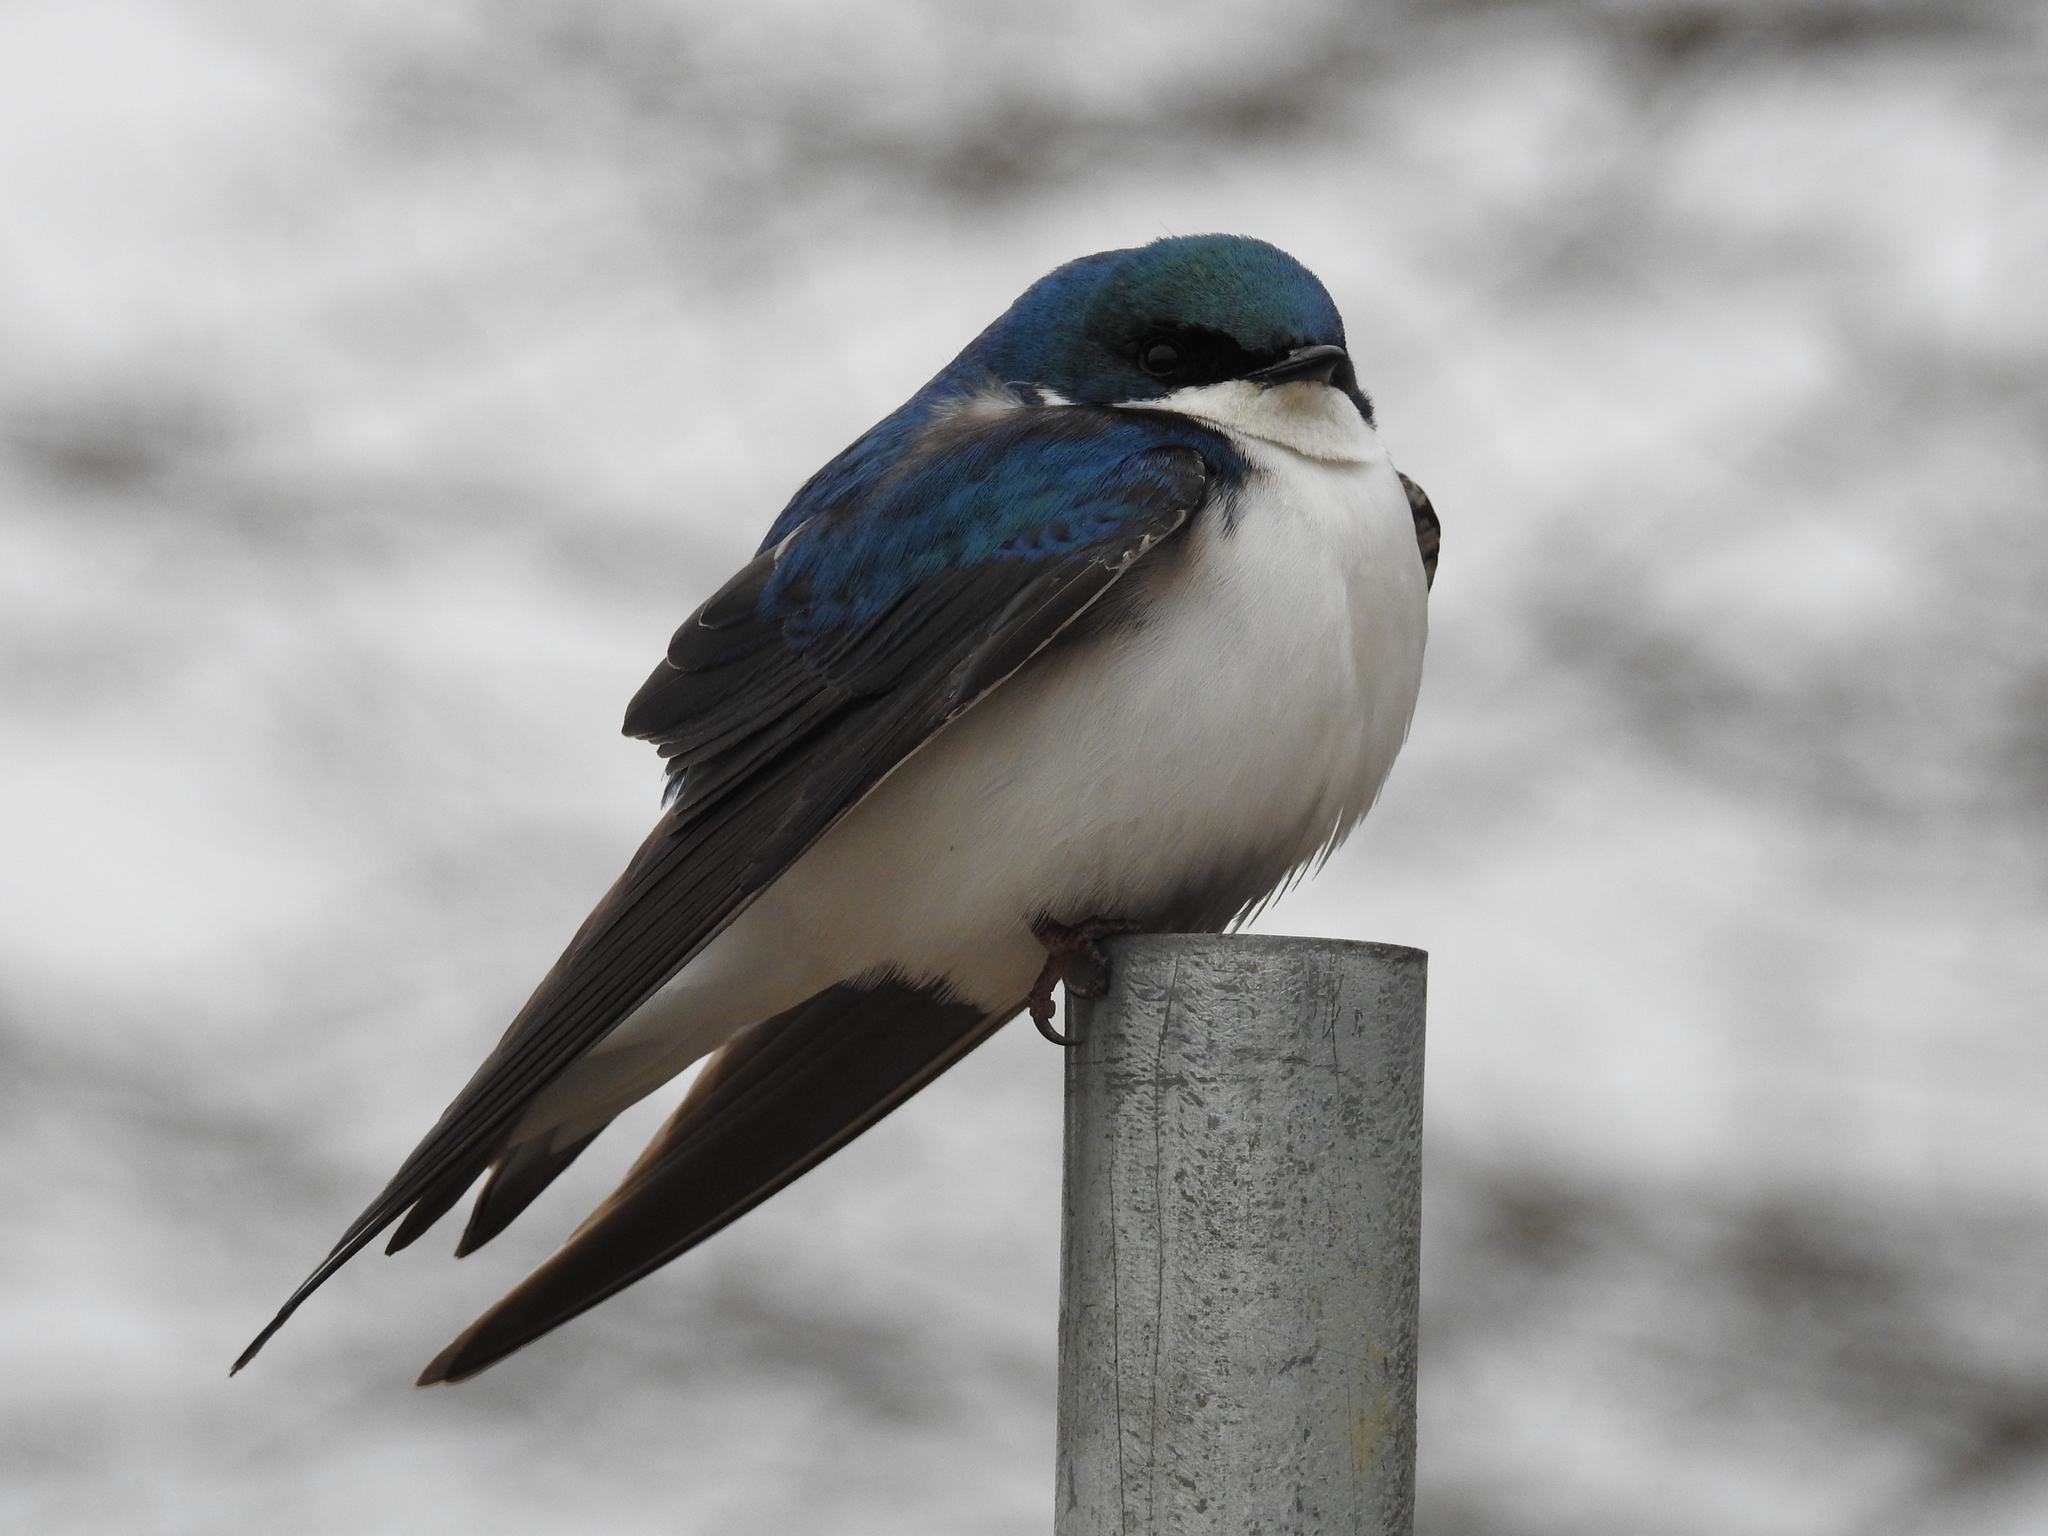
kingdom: Animalia
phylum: Chordata
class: Aves
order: Passeriformes
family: Hirundinidae
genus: Tachycineta
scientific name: Tachycineta bicolor
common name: Tree swallow
